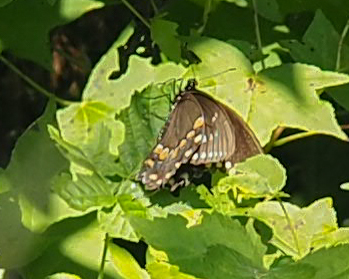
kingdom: Animalia
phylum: Arthropoda
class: Insecta
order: Lepidoptera
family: Papilionidae
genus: Papilio
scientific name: Papilio troilus
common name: Spicebush swallowtail
